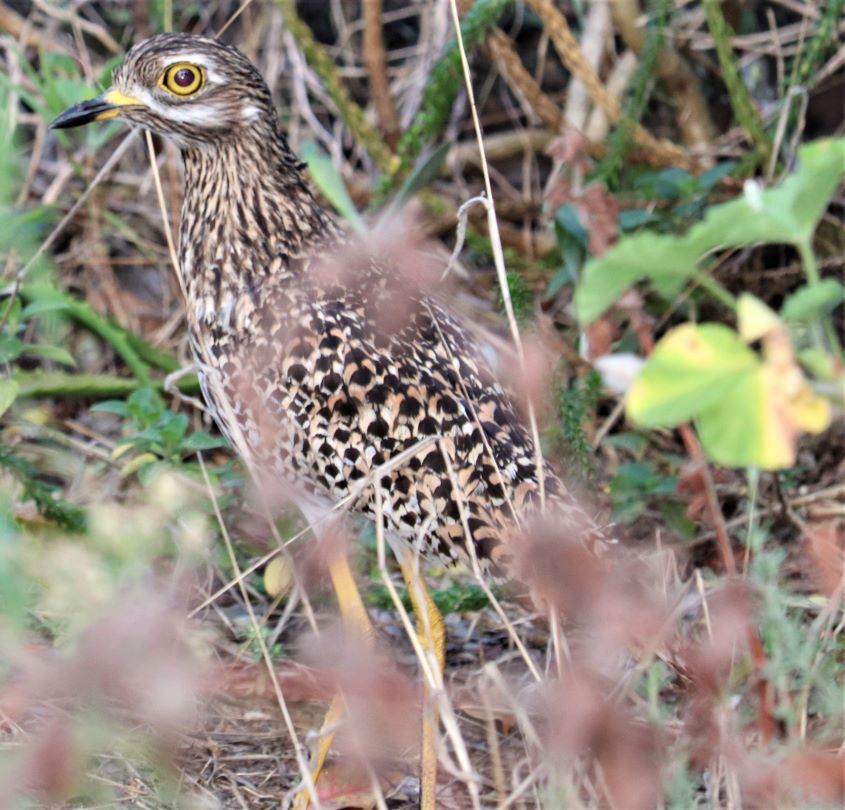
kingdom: Animalia
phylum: Chordata
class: Aves
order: Charadriiformes
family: Burhinidae
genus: Burhinus
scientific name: Burhinus capensis
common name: Spotted thick-knee
